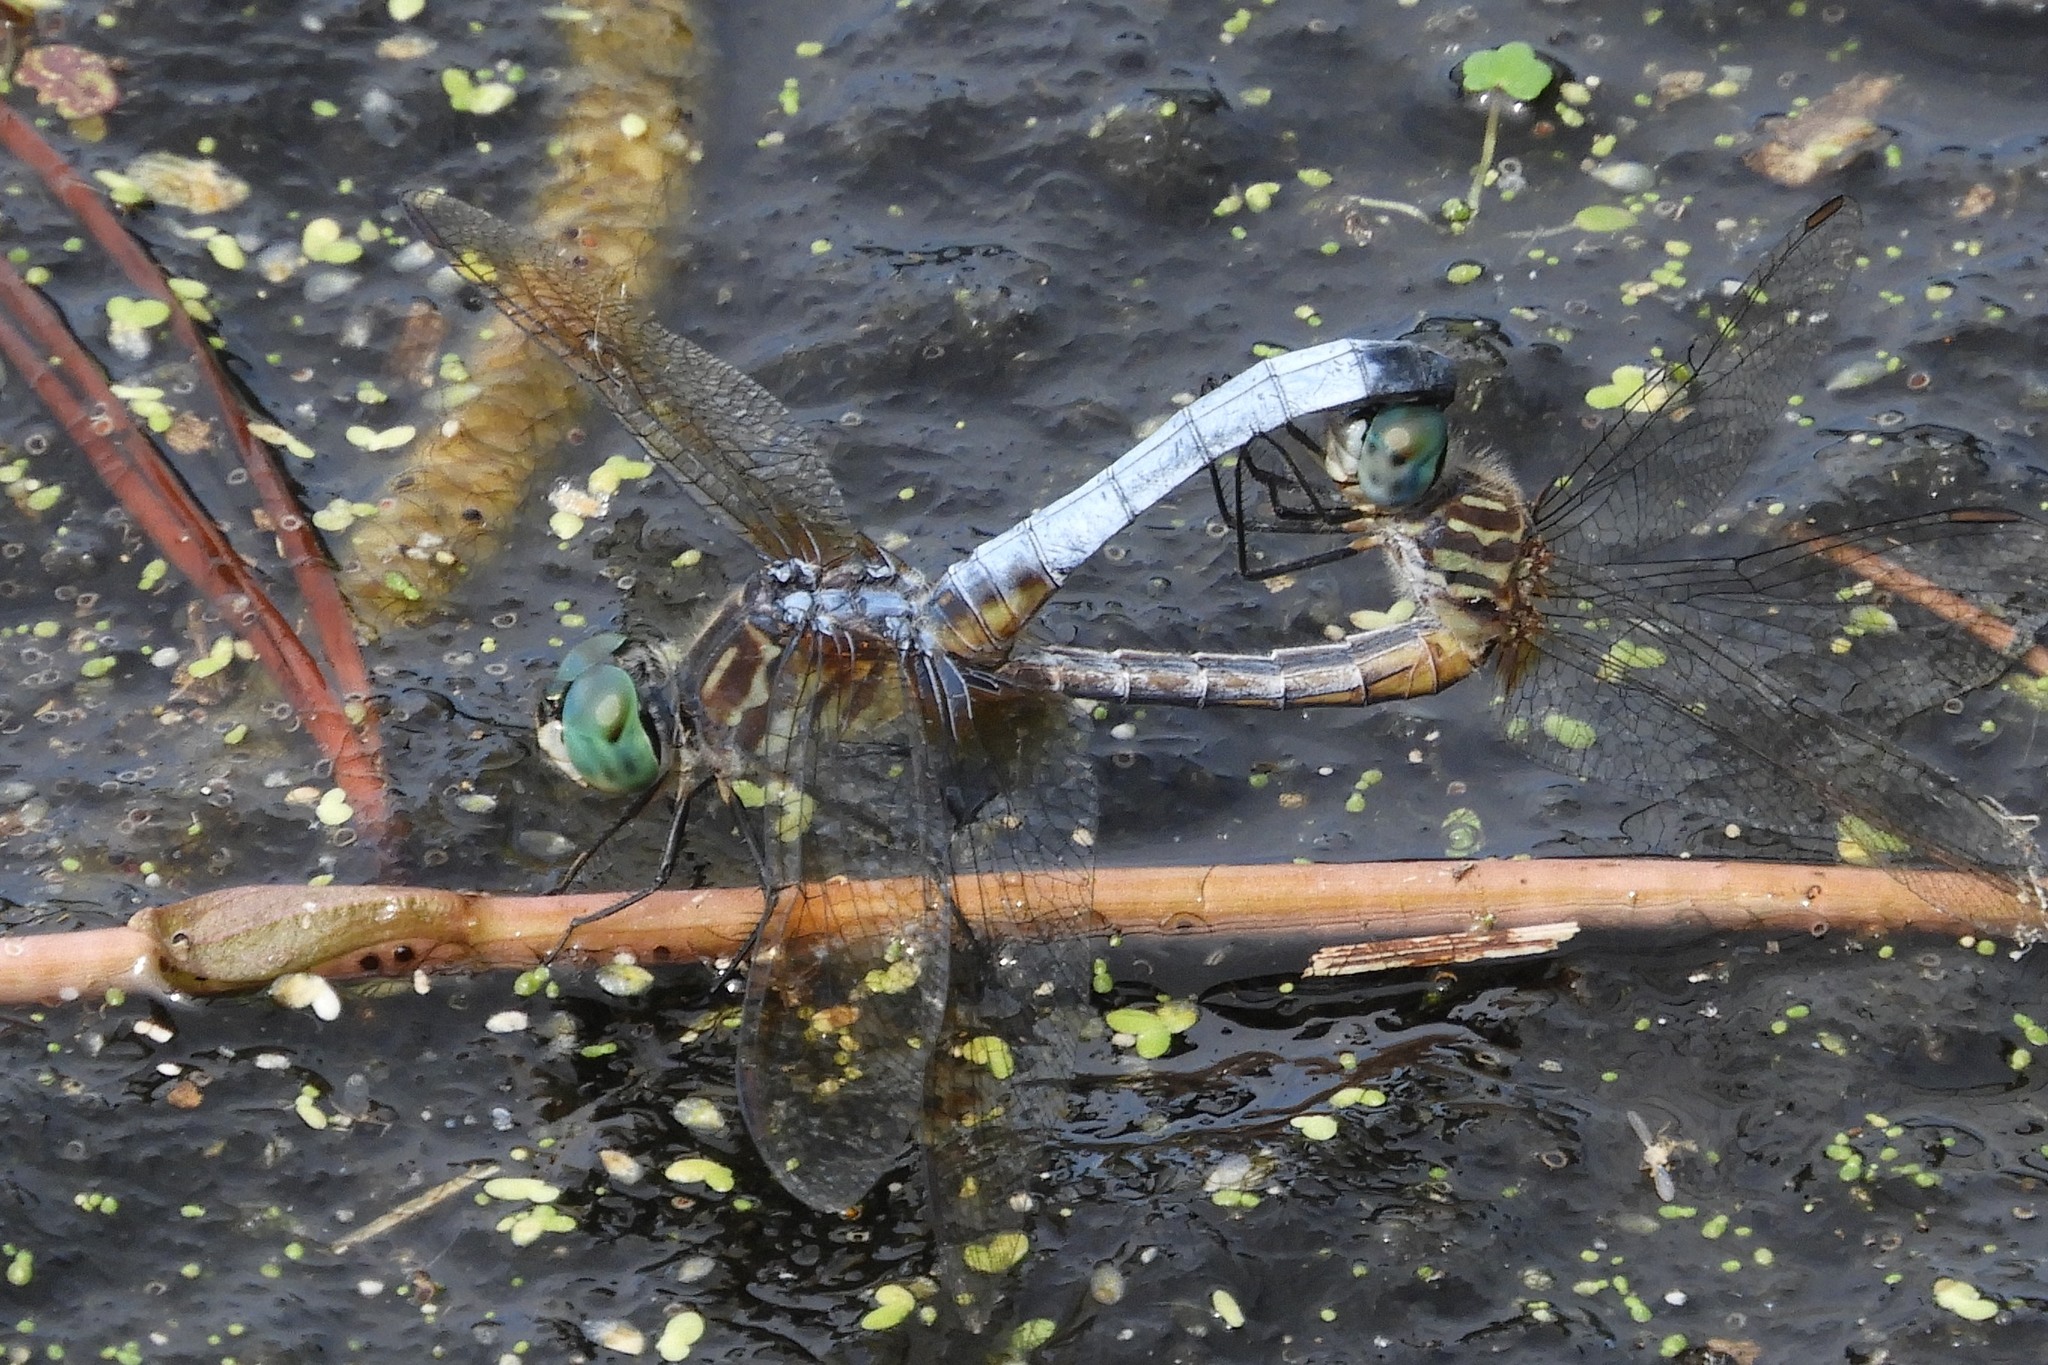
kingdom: Animalia
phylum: Arthropoda
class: Insecta
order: Odonata
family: Libellulidae
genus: Pachydiplax
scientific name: Pachydiplax longipennis
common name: Blue dasher
